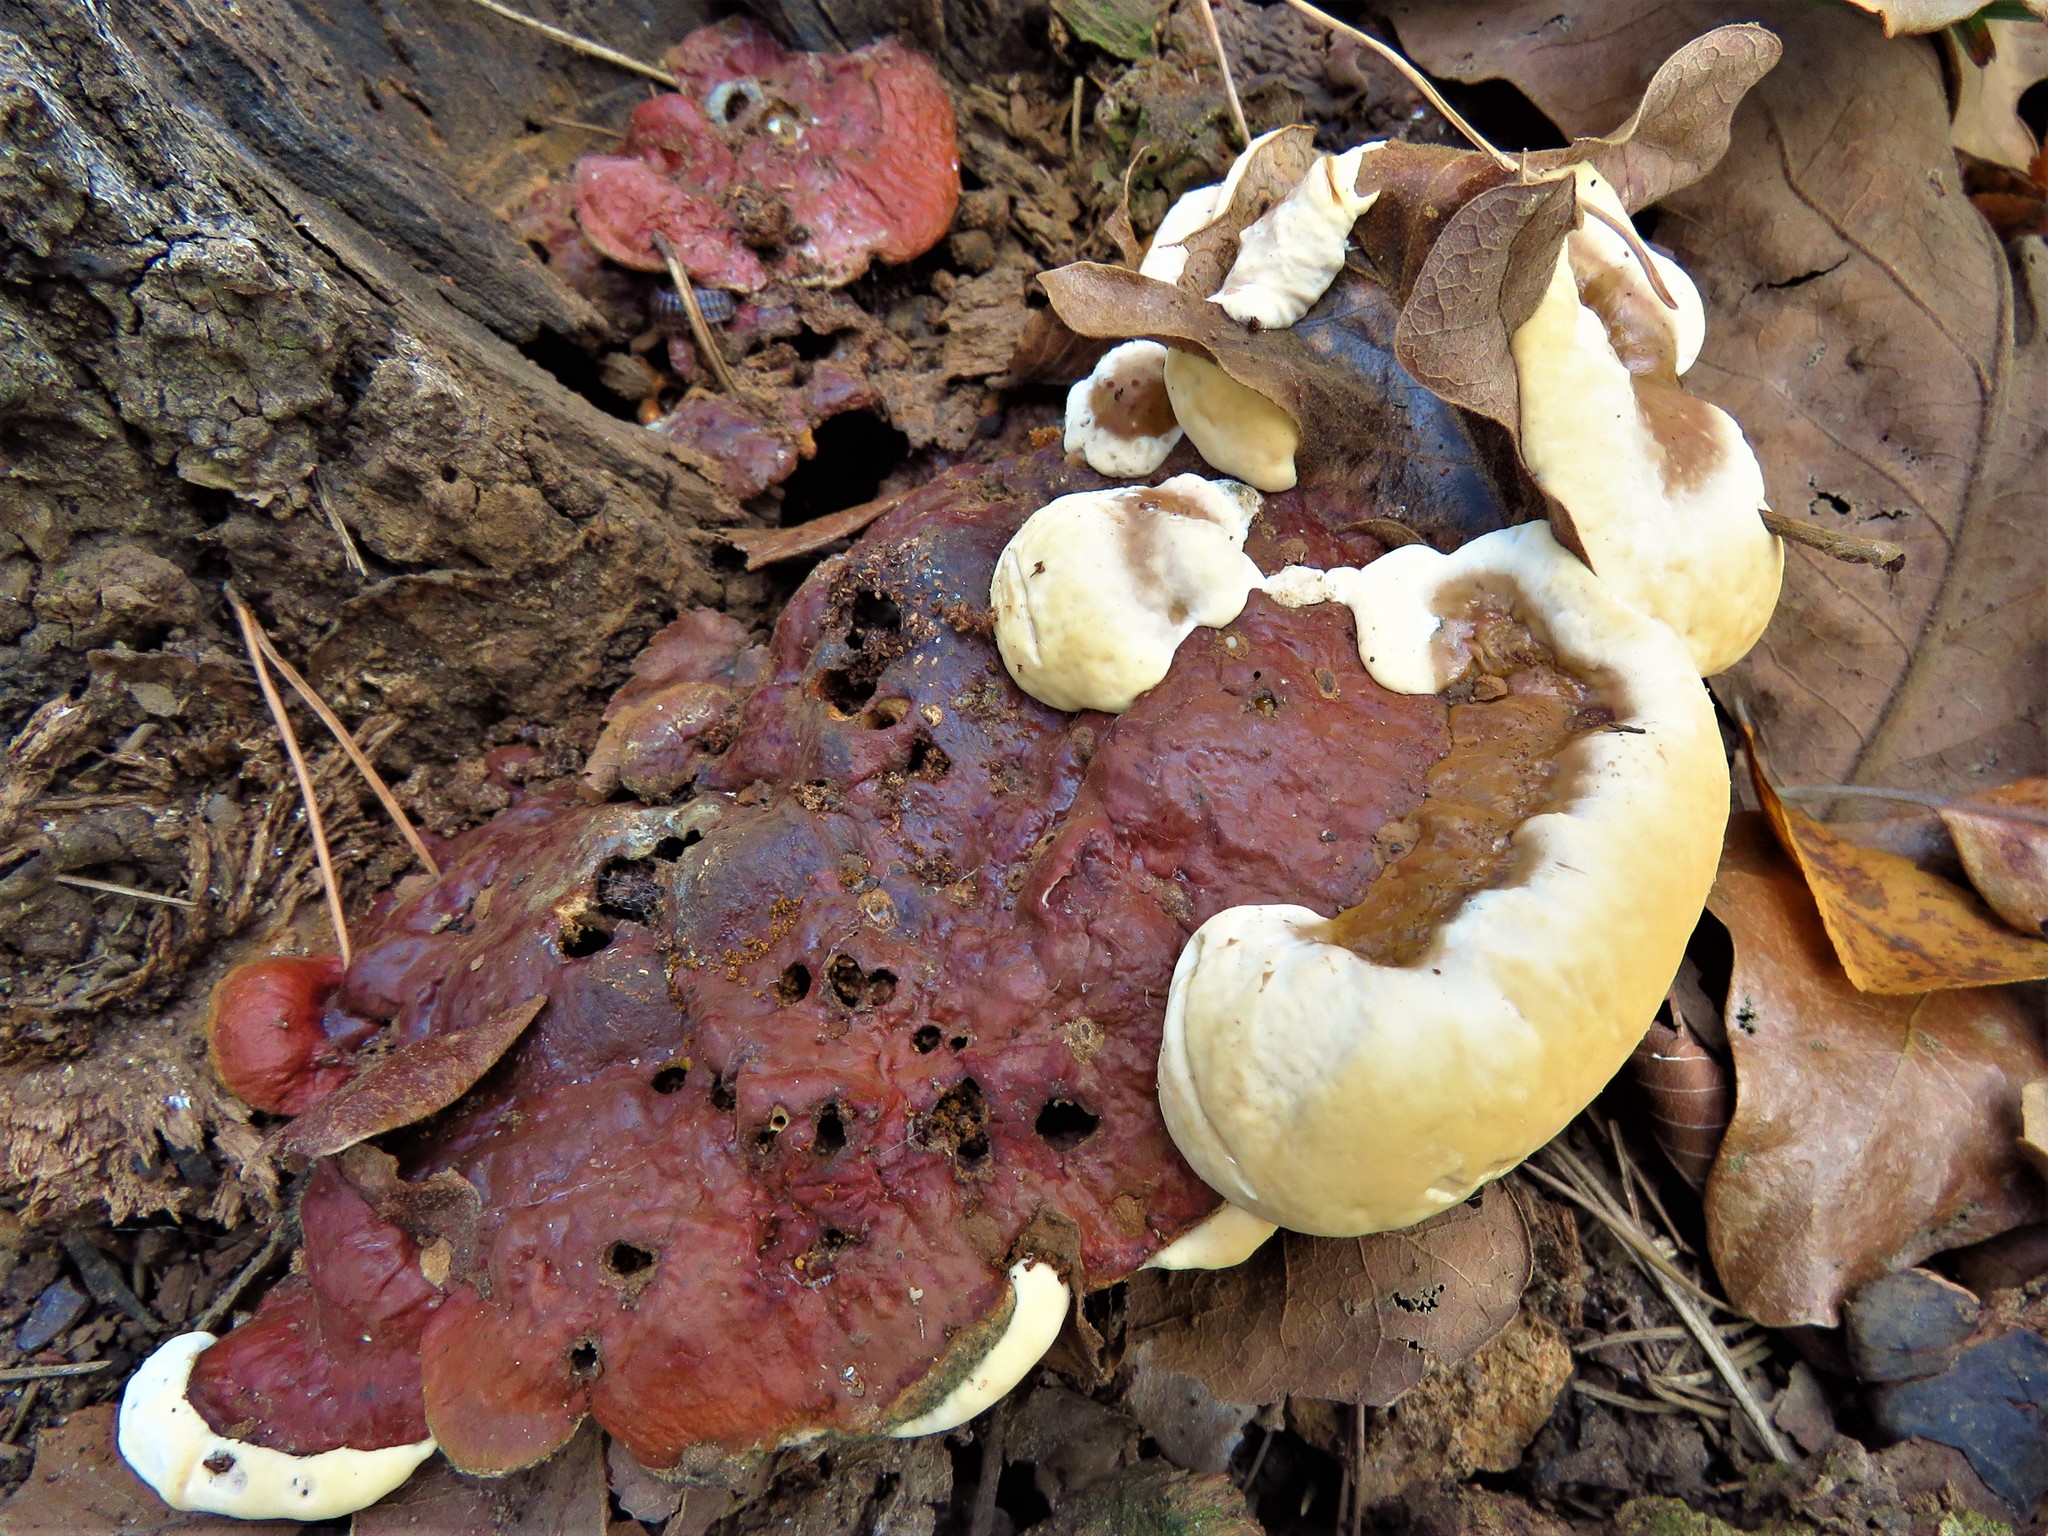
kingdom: Fungi
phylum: Basidiomycota
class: Agaricomycetes
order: Polyporales
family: Polyporaceae
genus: Ganoderma
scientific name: Ganoderma resinaceum
